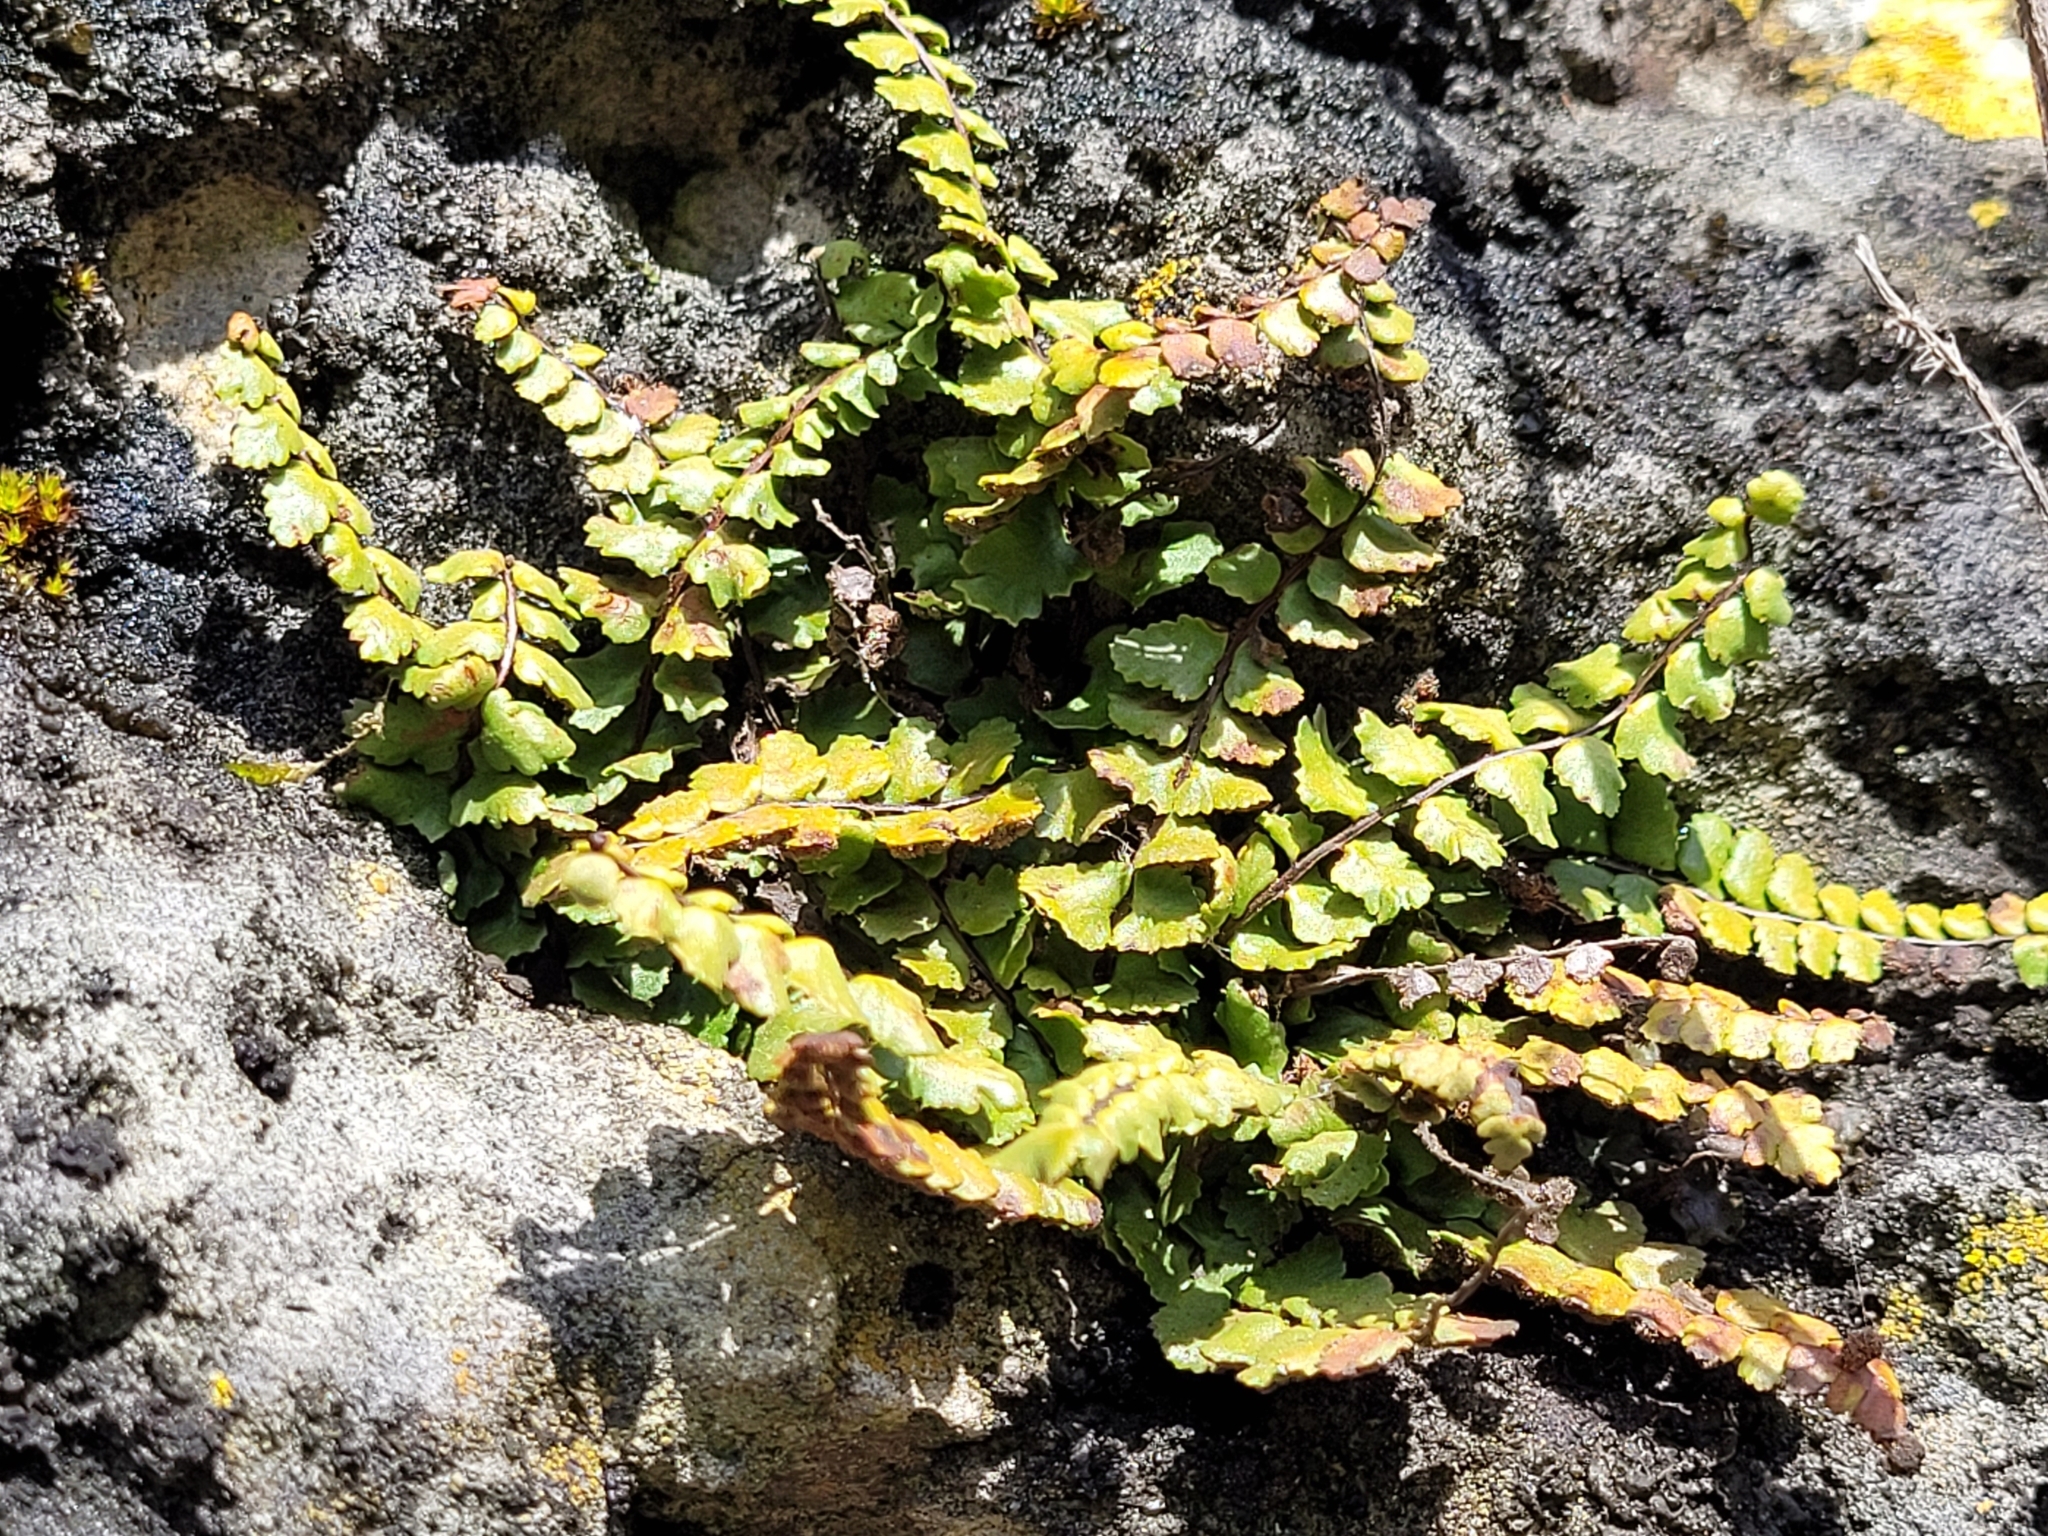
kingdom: Plantae
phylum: Tracheophyta
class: Polypodiopsida
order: Polypodiales
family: Aspleniaceae
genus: Asplenium
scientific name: Asplenium trichomanes
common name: Maidenhair spleenwort
